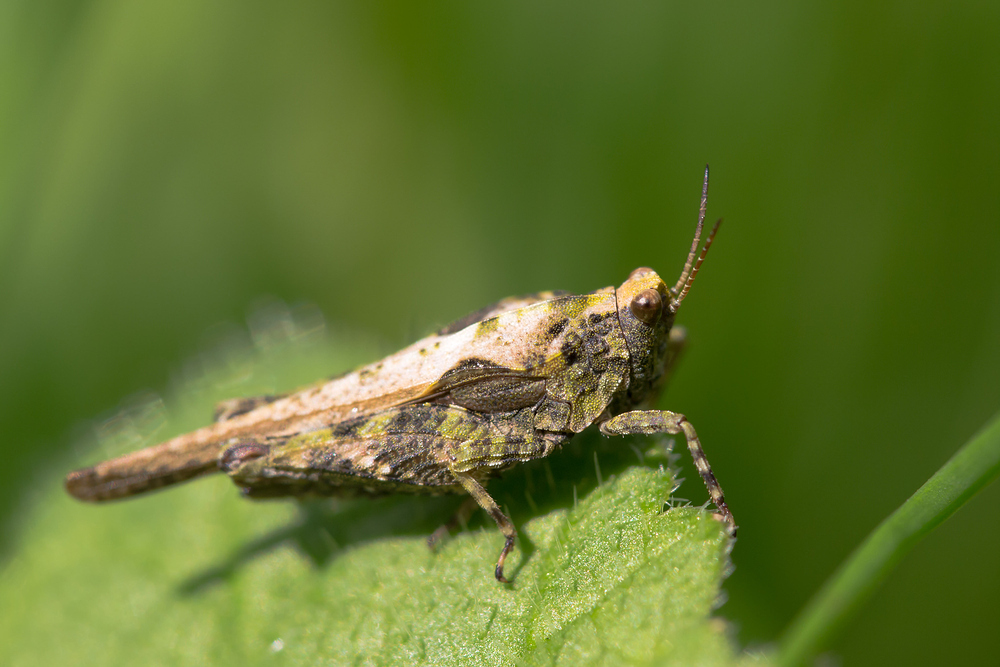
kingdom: Animalia
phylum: Arthropoda
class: Insecta
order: Orthoptera
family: Tetrigidae
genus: Tetrix
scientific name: Tetrix ceperoi
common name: Cepero's ground-hopper
